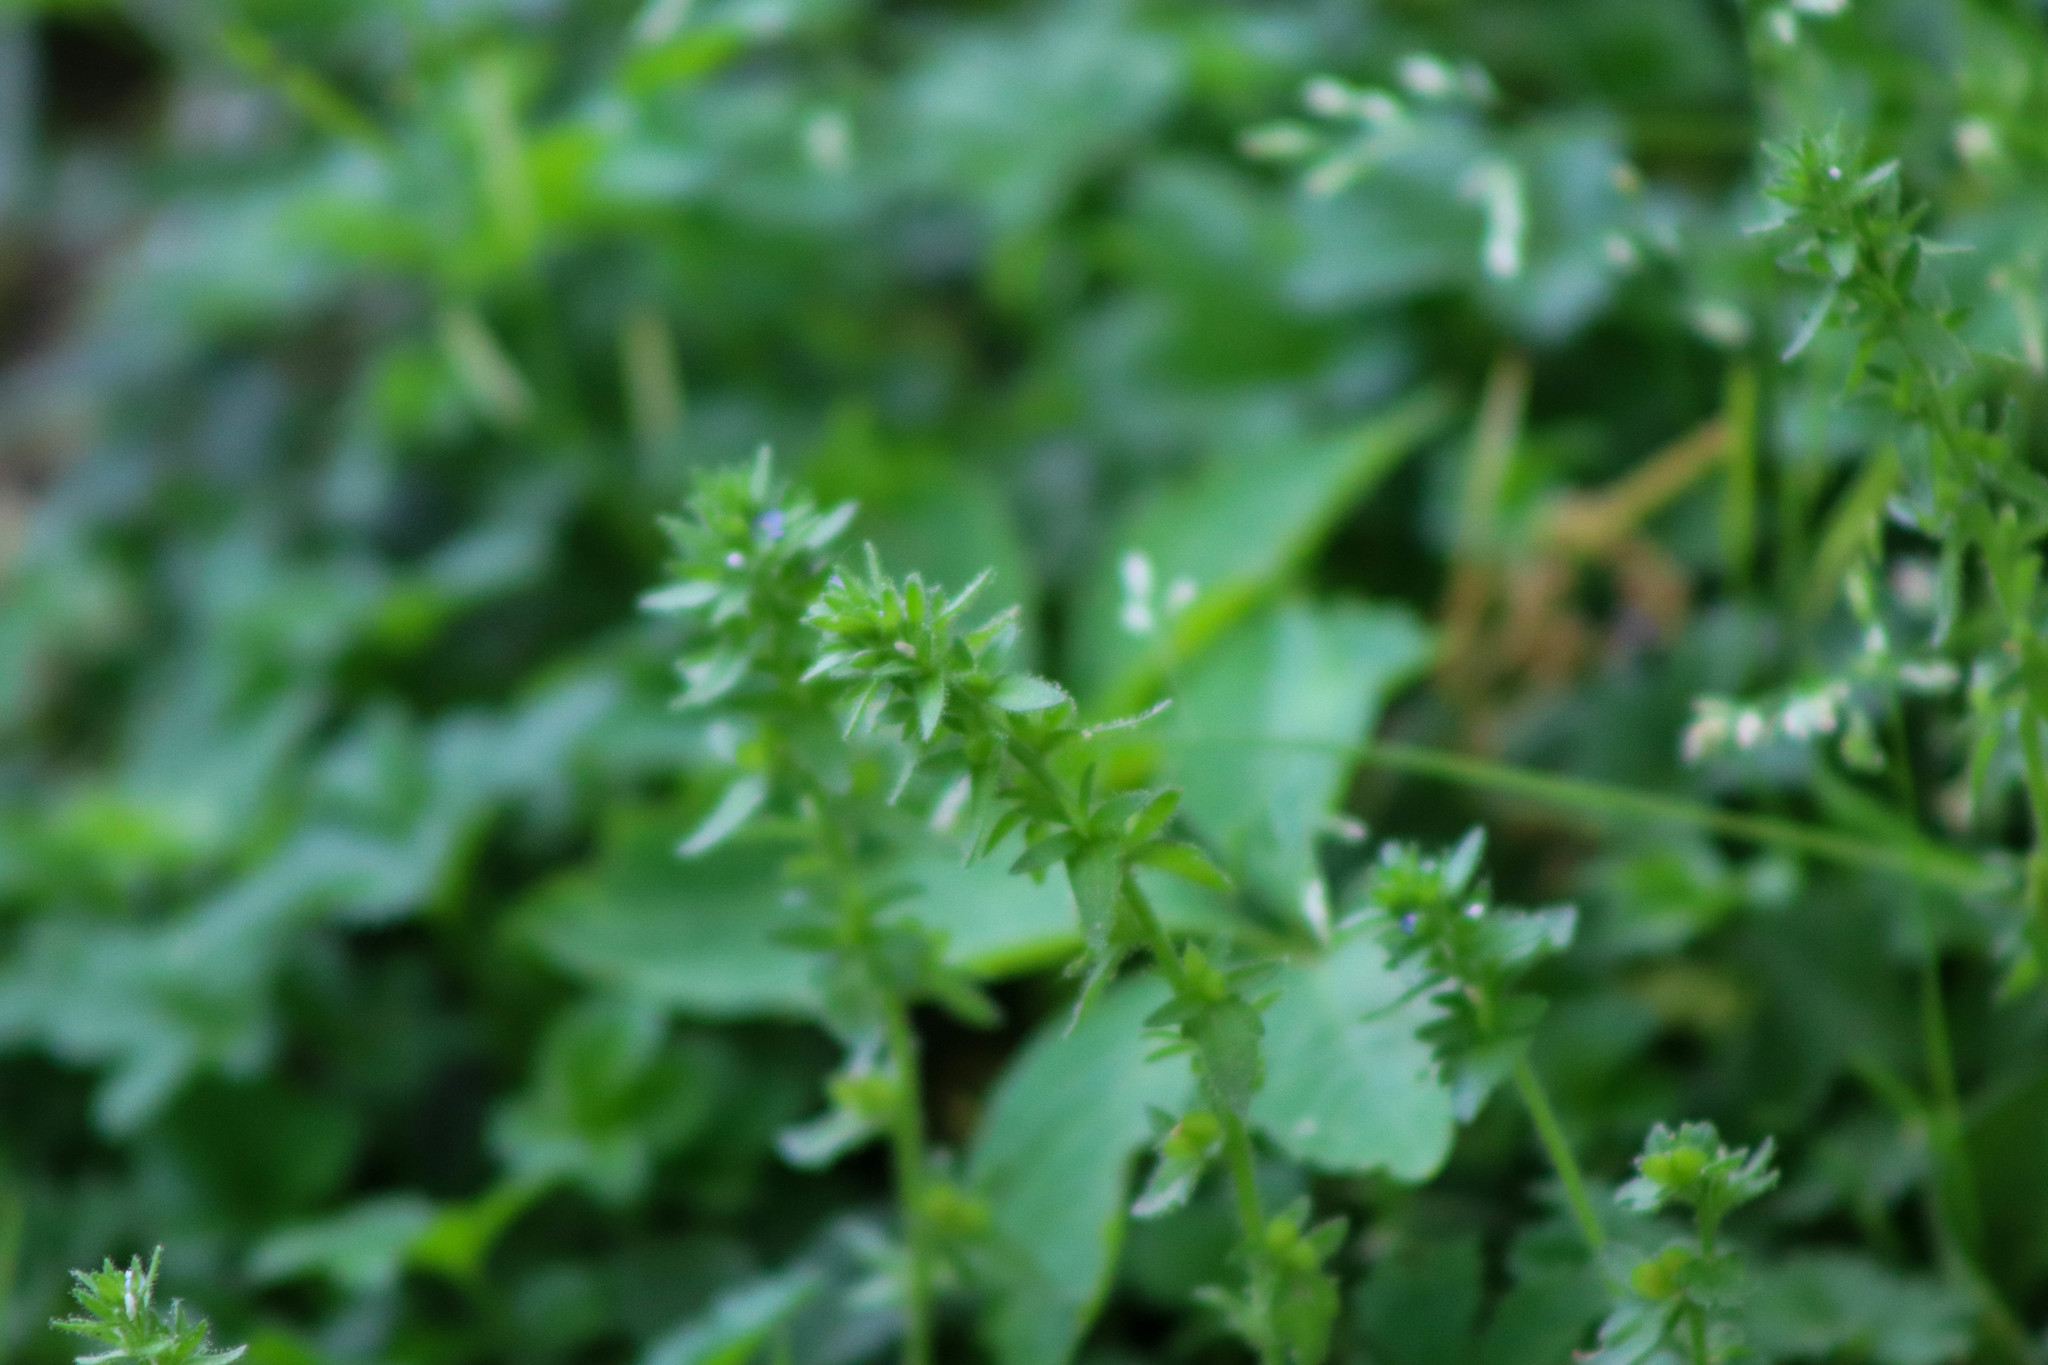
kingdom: Plantae
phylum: Tracheophyta
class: Magnoliopsida
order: Lamiales
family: Plantaginaceae
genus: Veronica
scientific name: Veronica arvensis
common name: Corn speedwell
